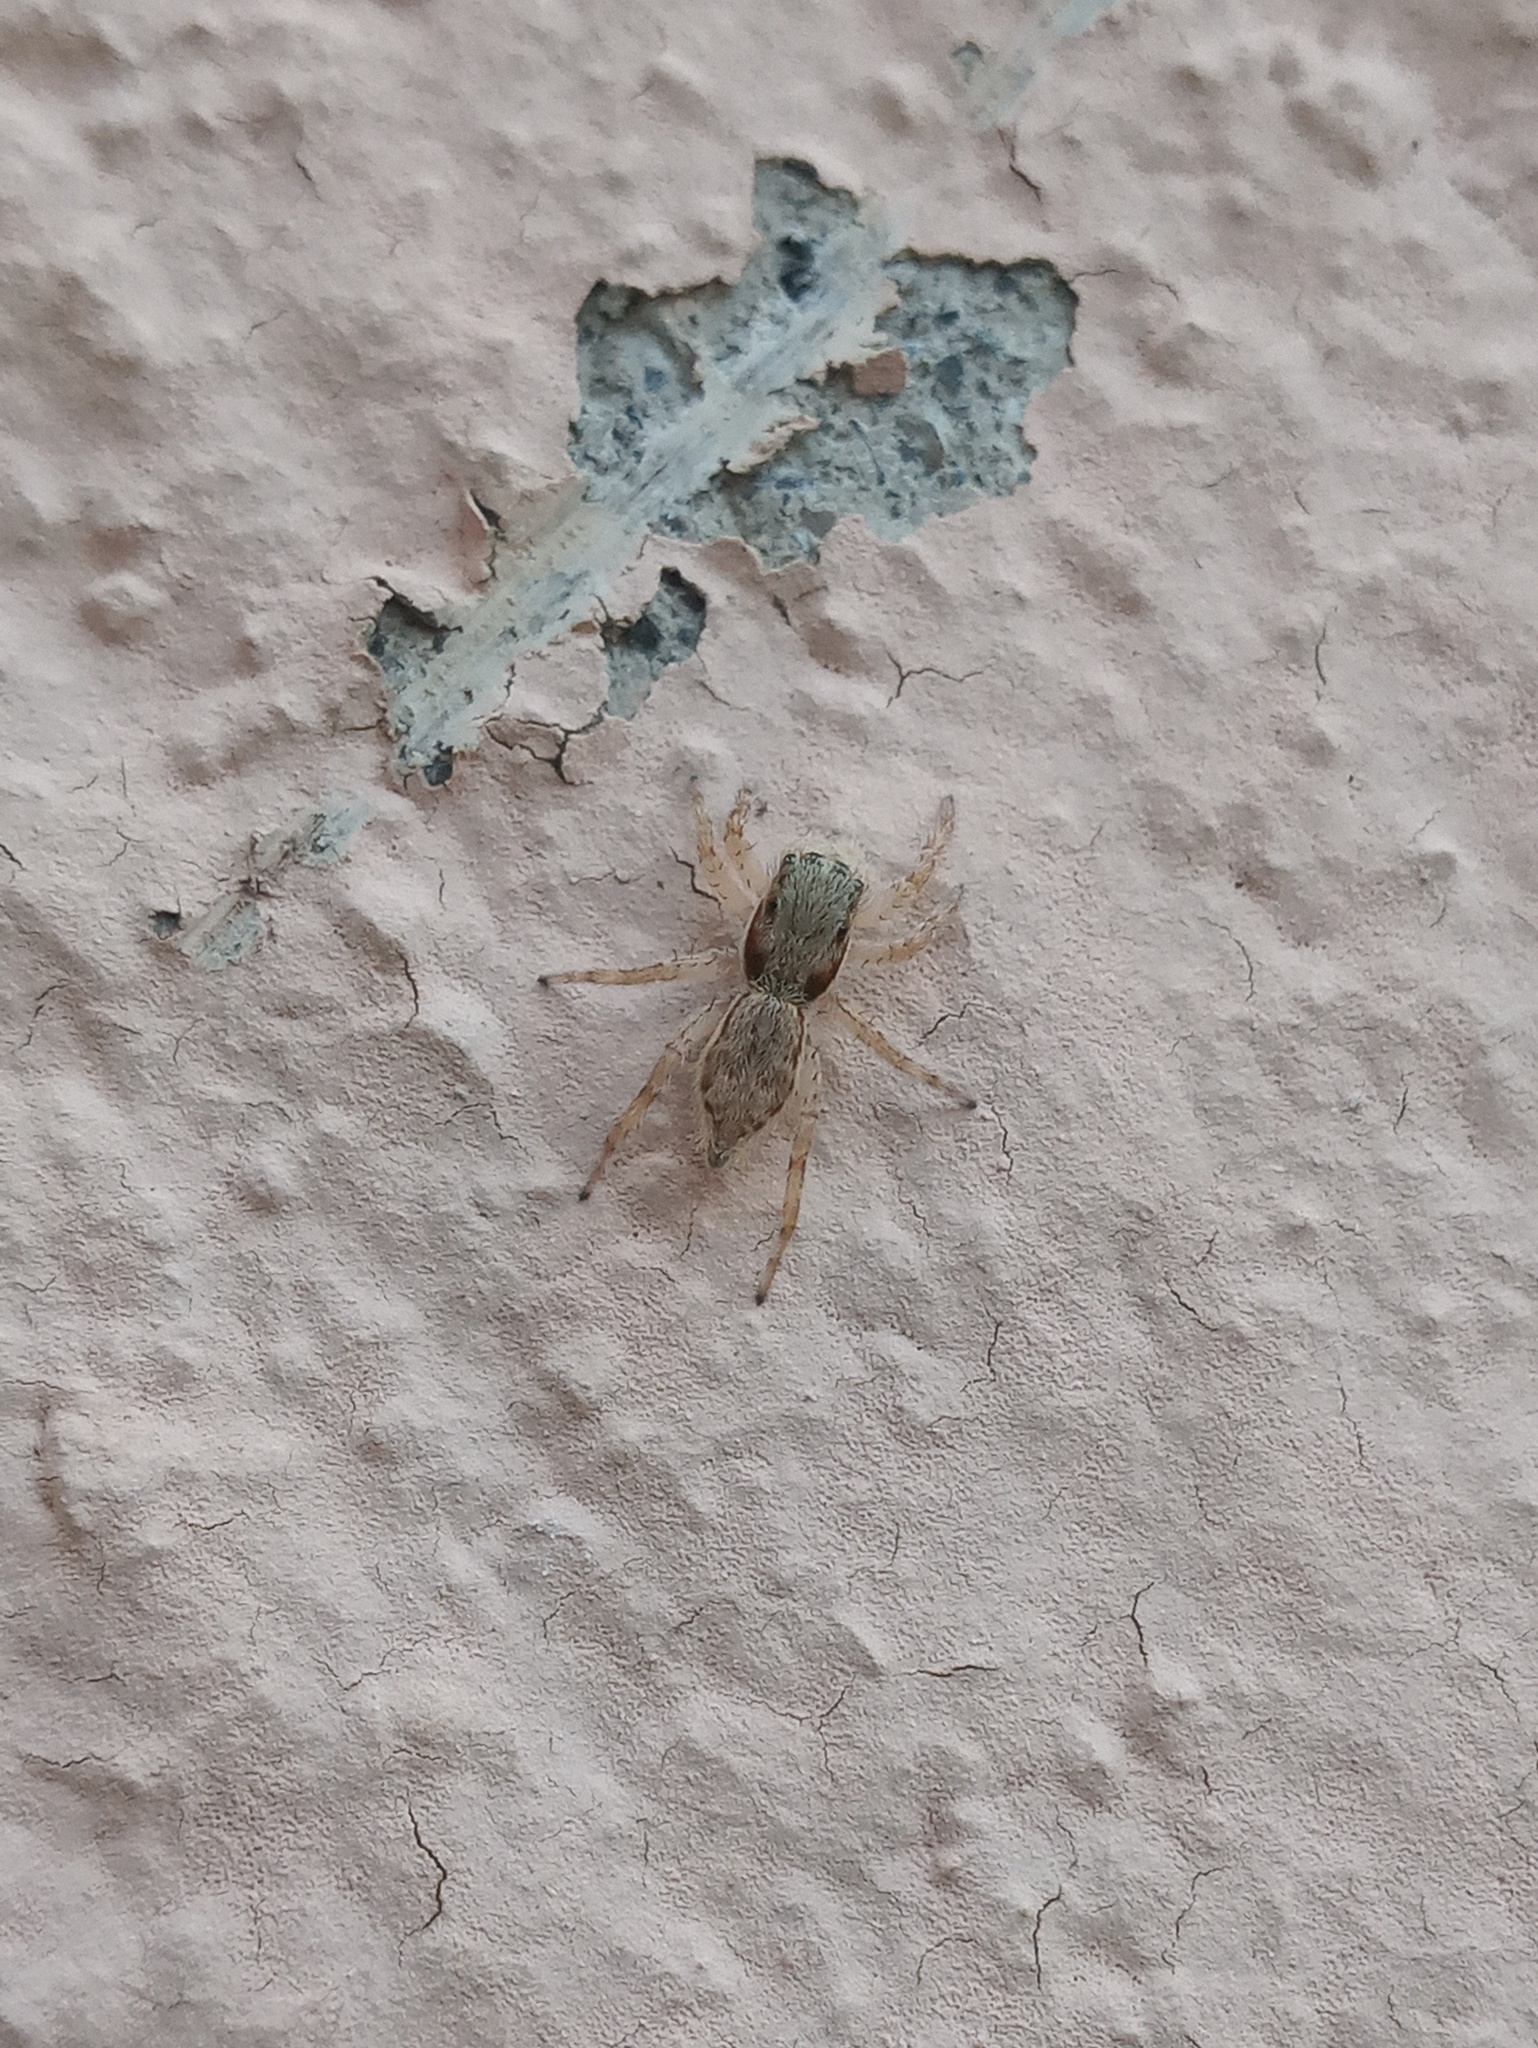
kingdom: Animalia
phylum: Arthropoda
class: Arachnida
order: Araneae
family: Salticidae
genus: Menemerus
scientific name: Menemerus bivittatus
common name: Gray wall jumper
